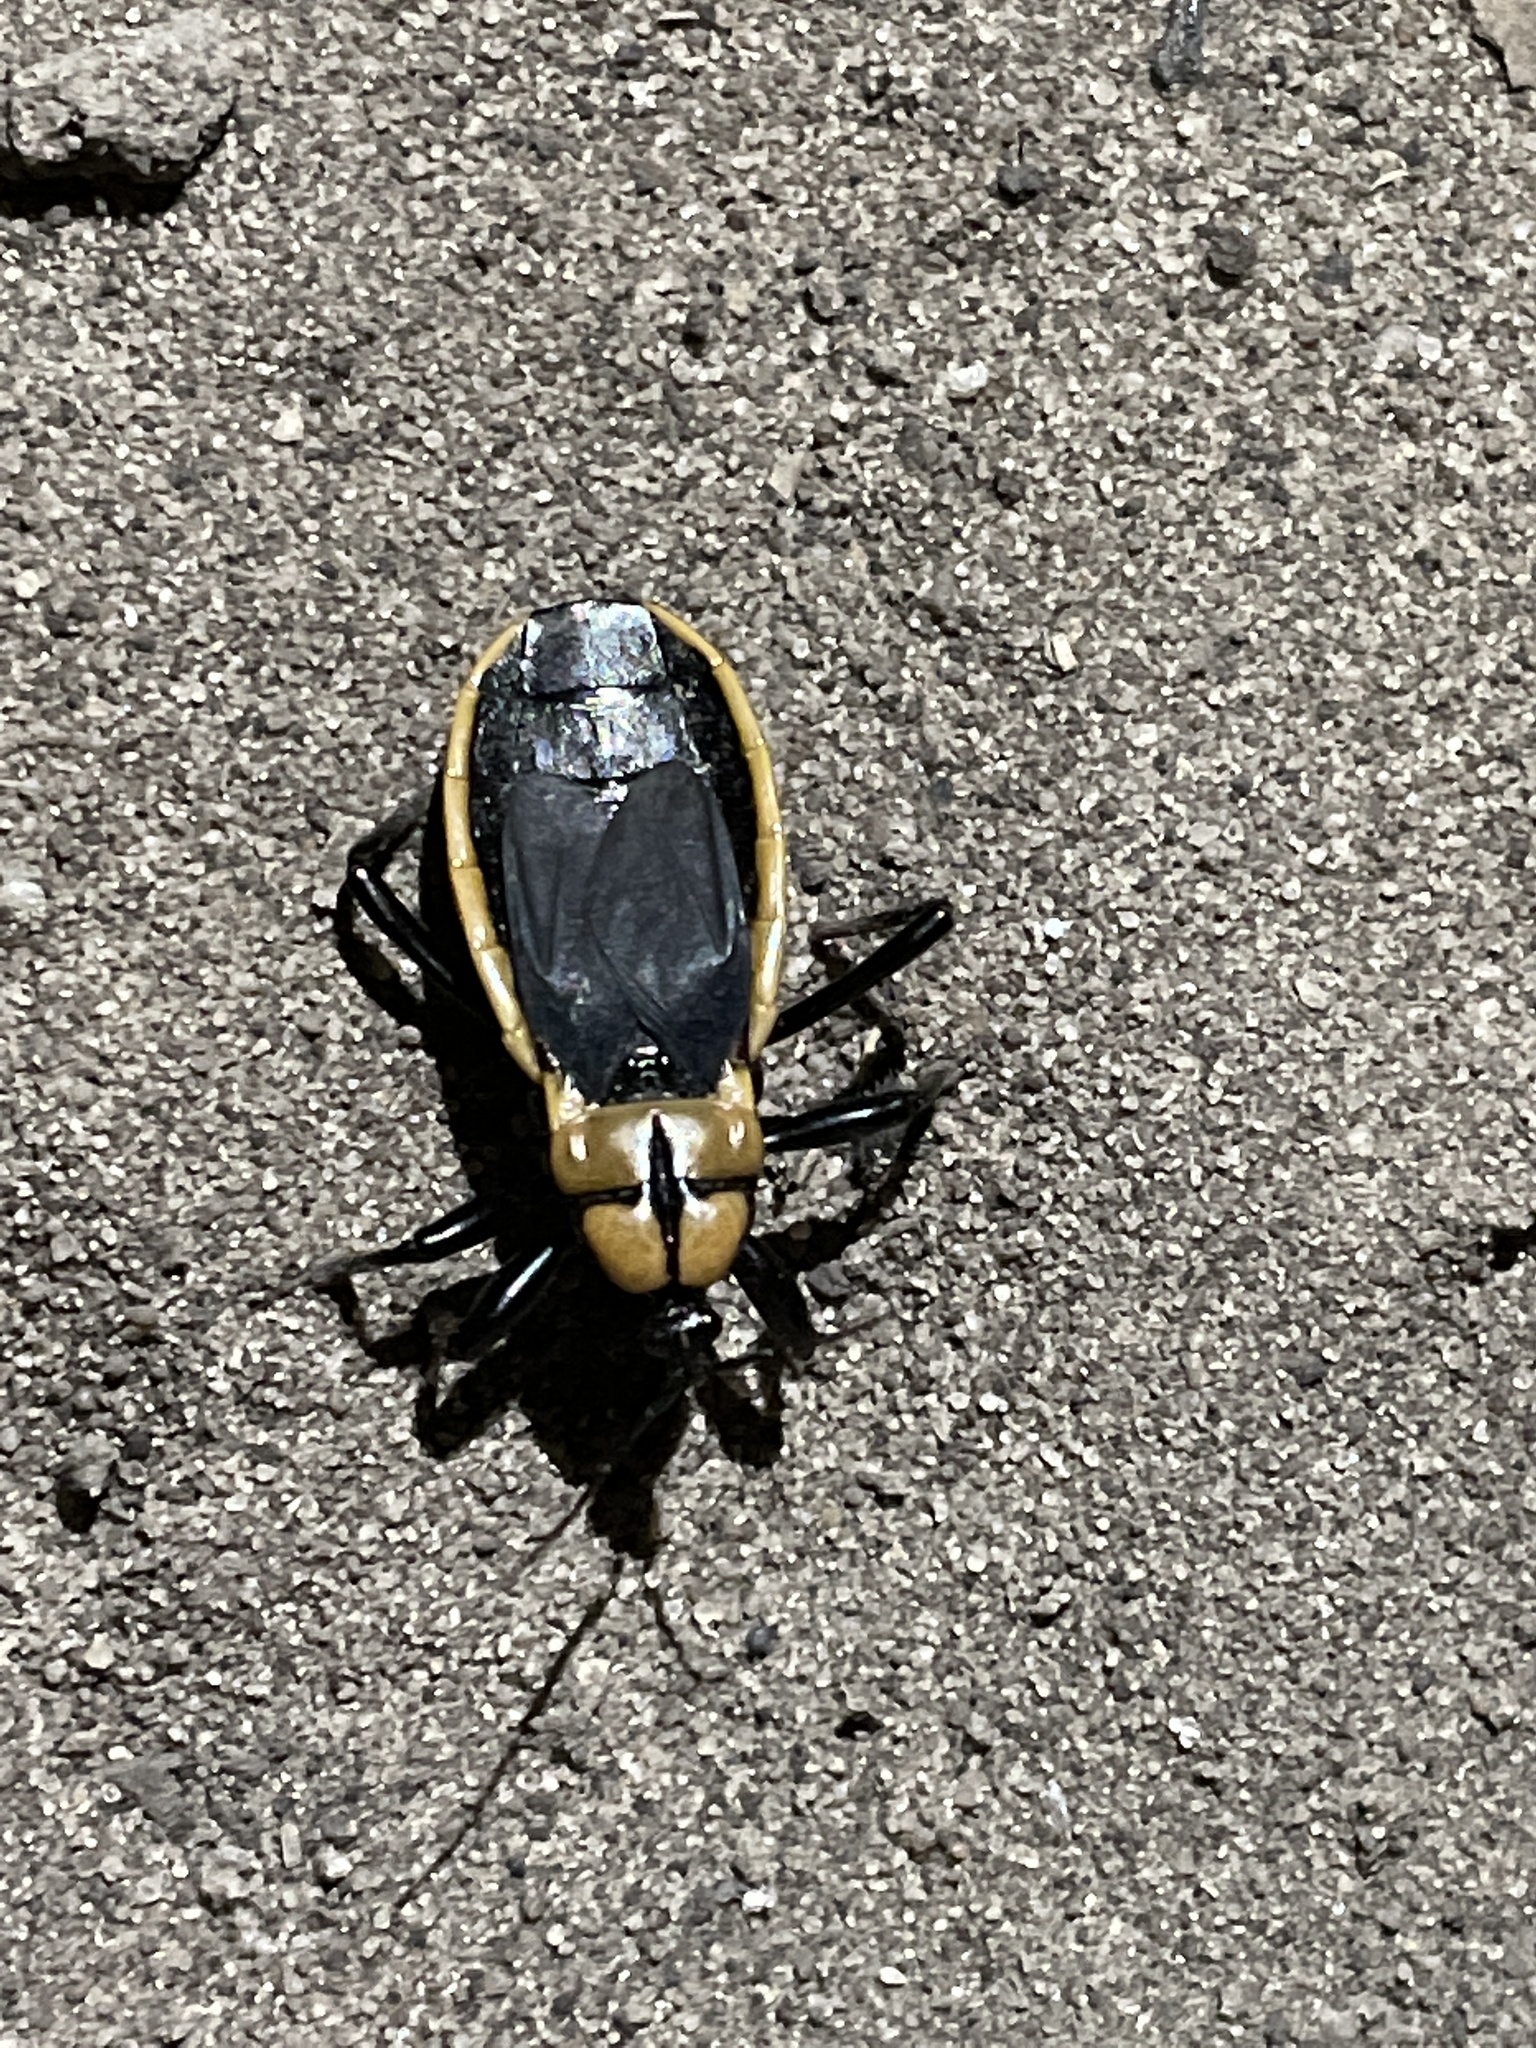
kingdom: Animalia
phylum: Arthropoda
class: Insecta
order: Hemiptera
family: Reduviidae
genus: Ectrichodia
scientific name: Ectrichodia crux
